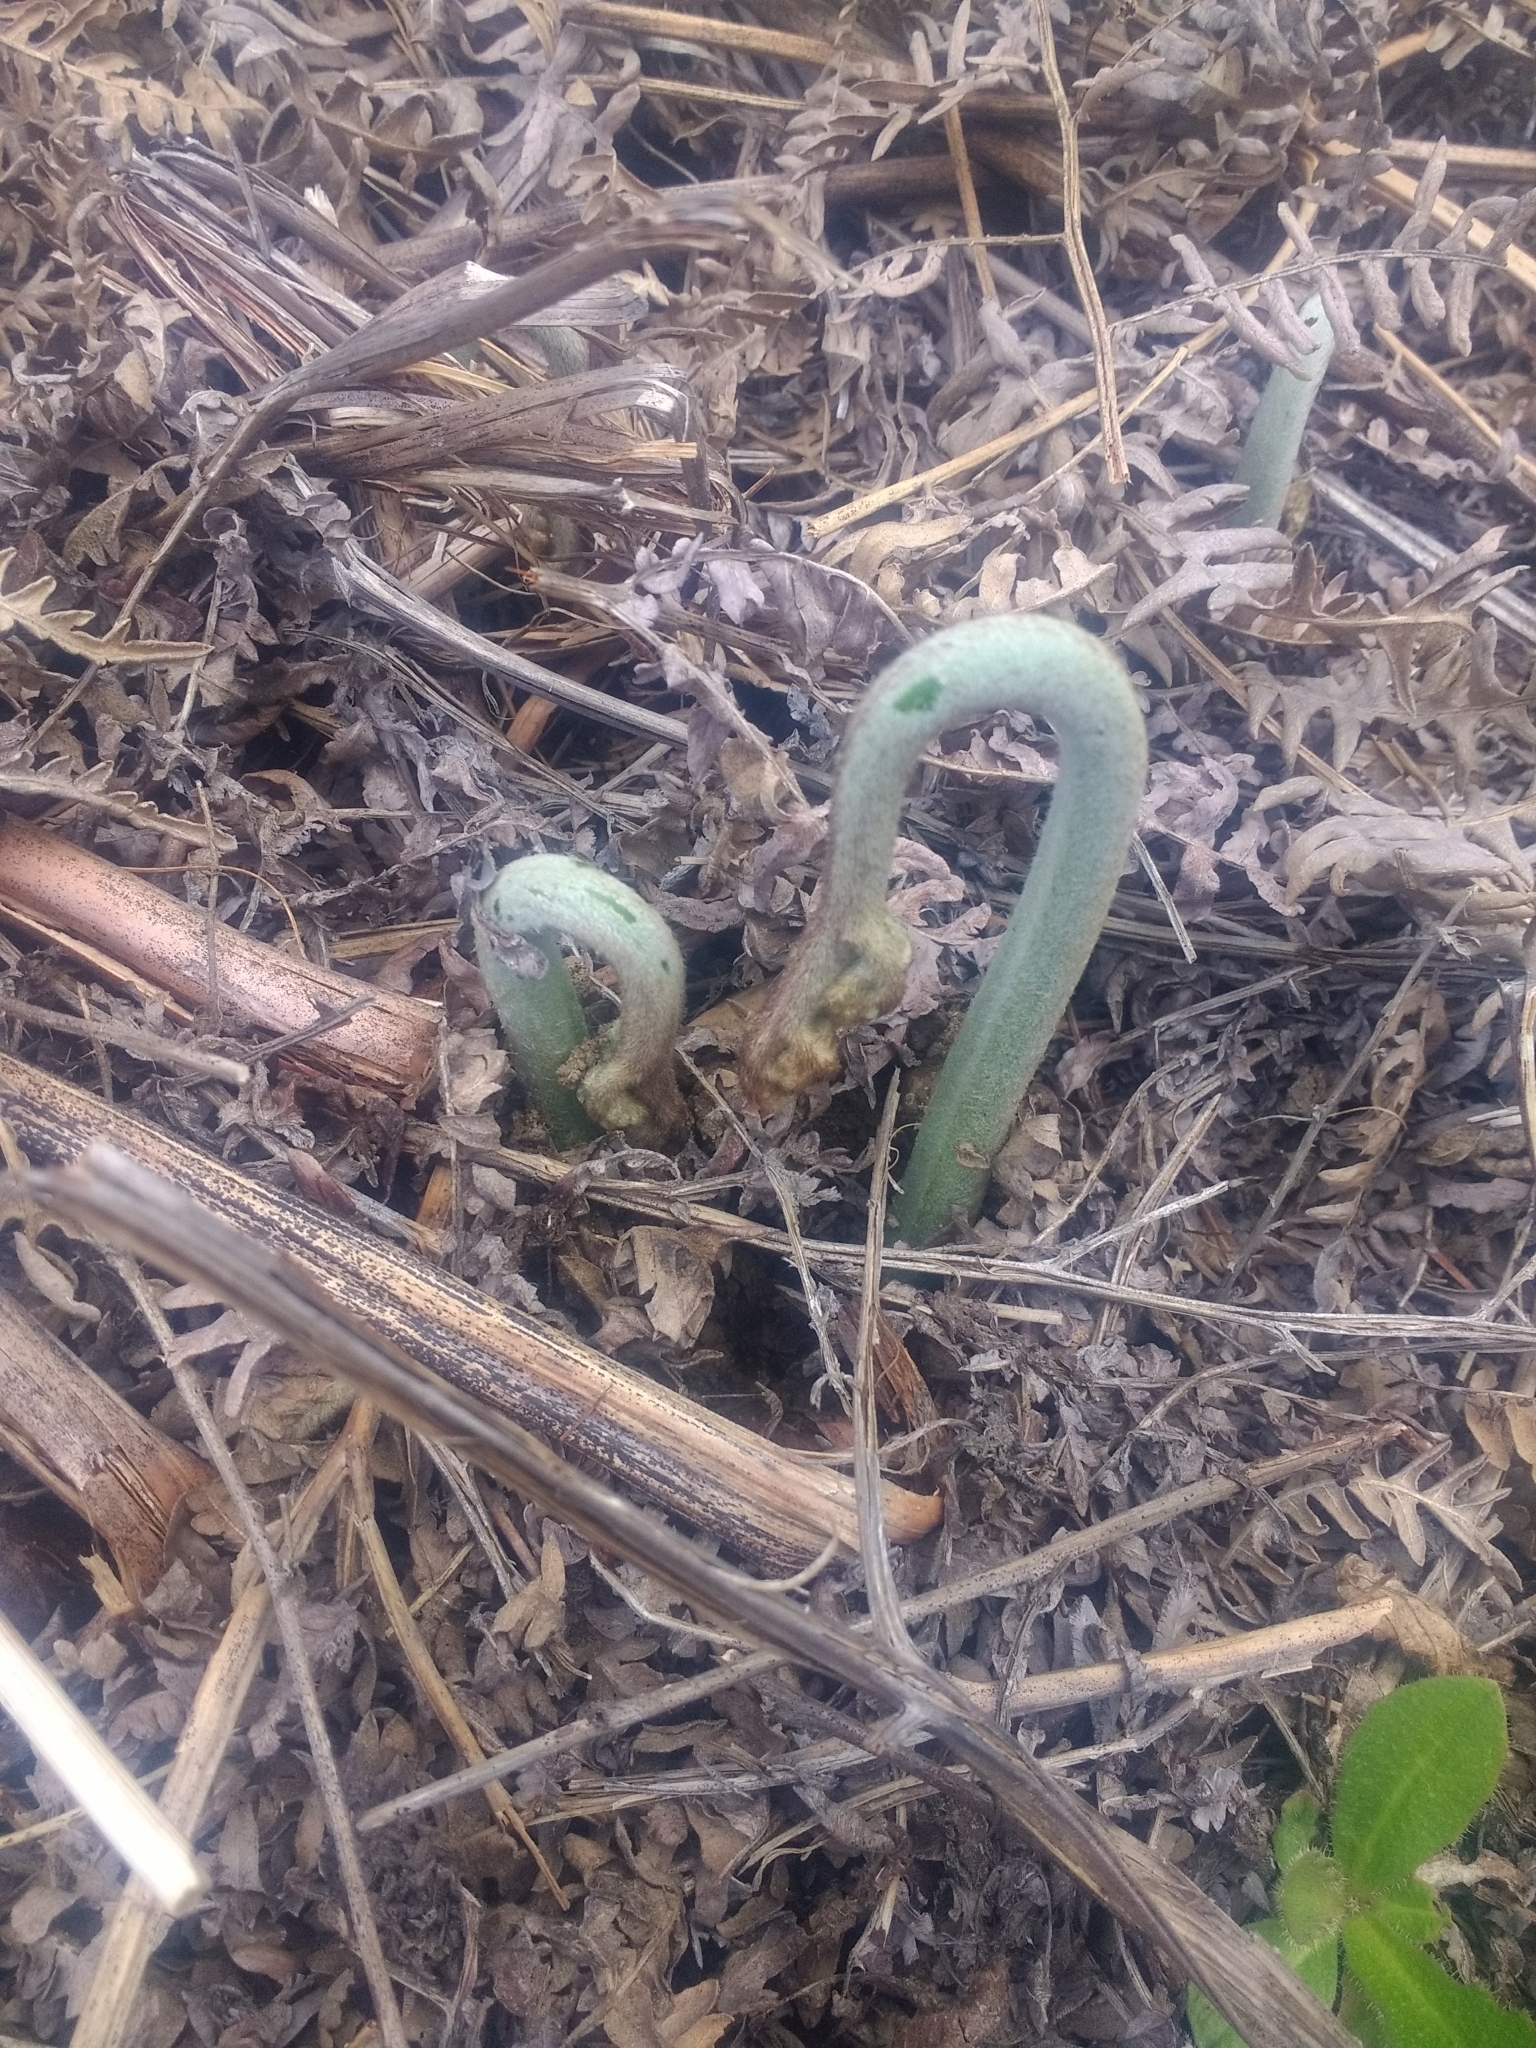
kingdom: Plantae
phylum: Tracheophyta
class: Polypodiopsida
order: Polypodiales
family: Dennstaedtiaceae
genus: Pteridium
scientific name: Pteridium aquilinum
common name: Bracken
